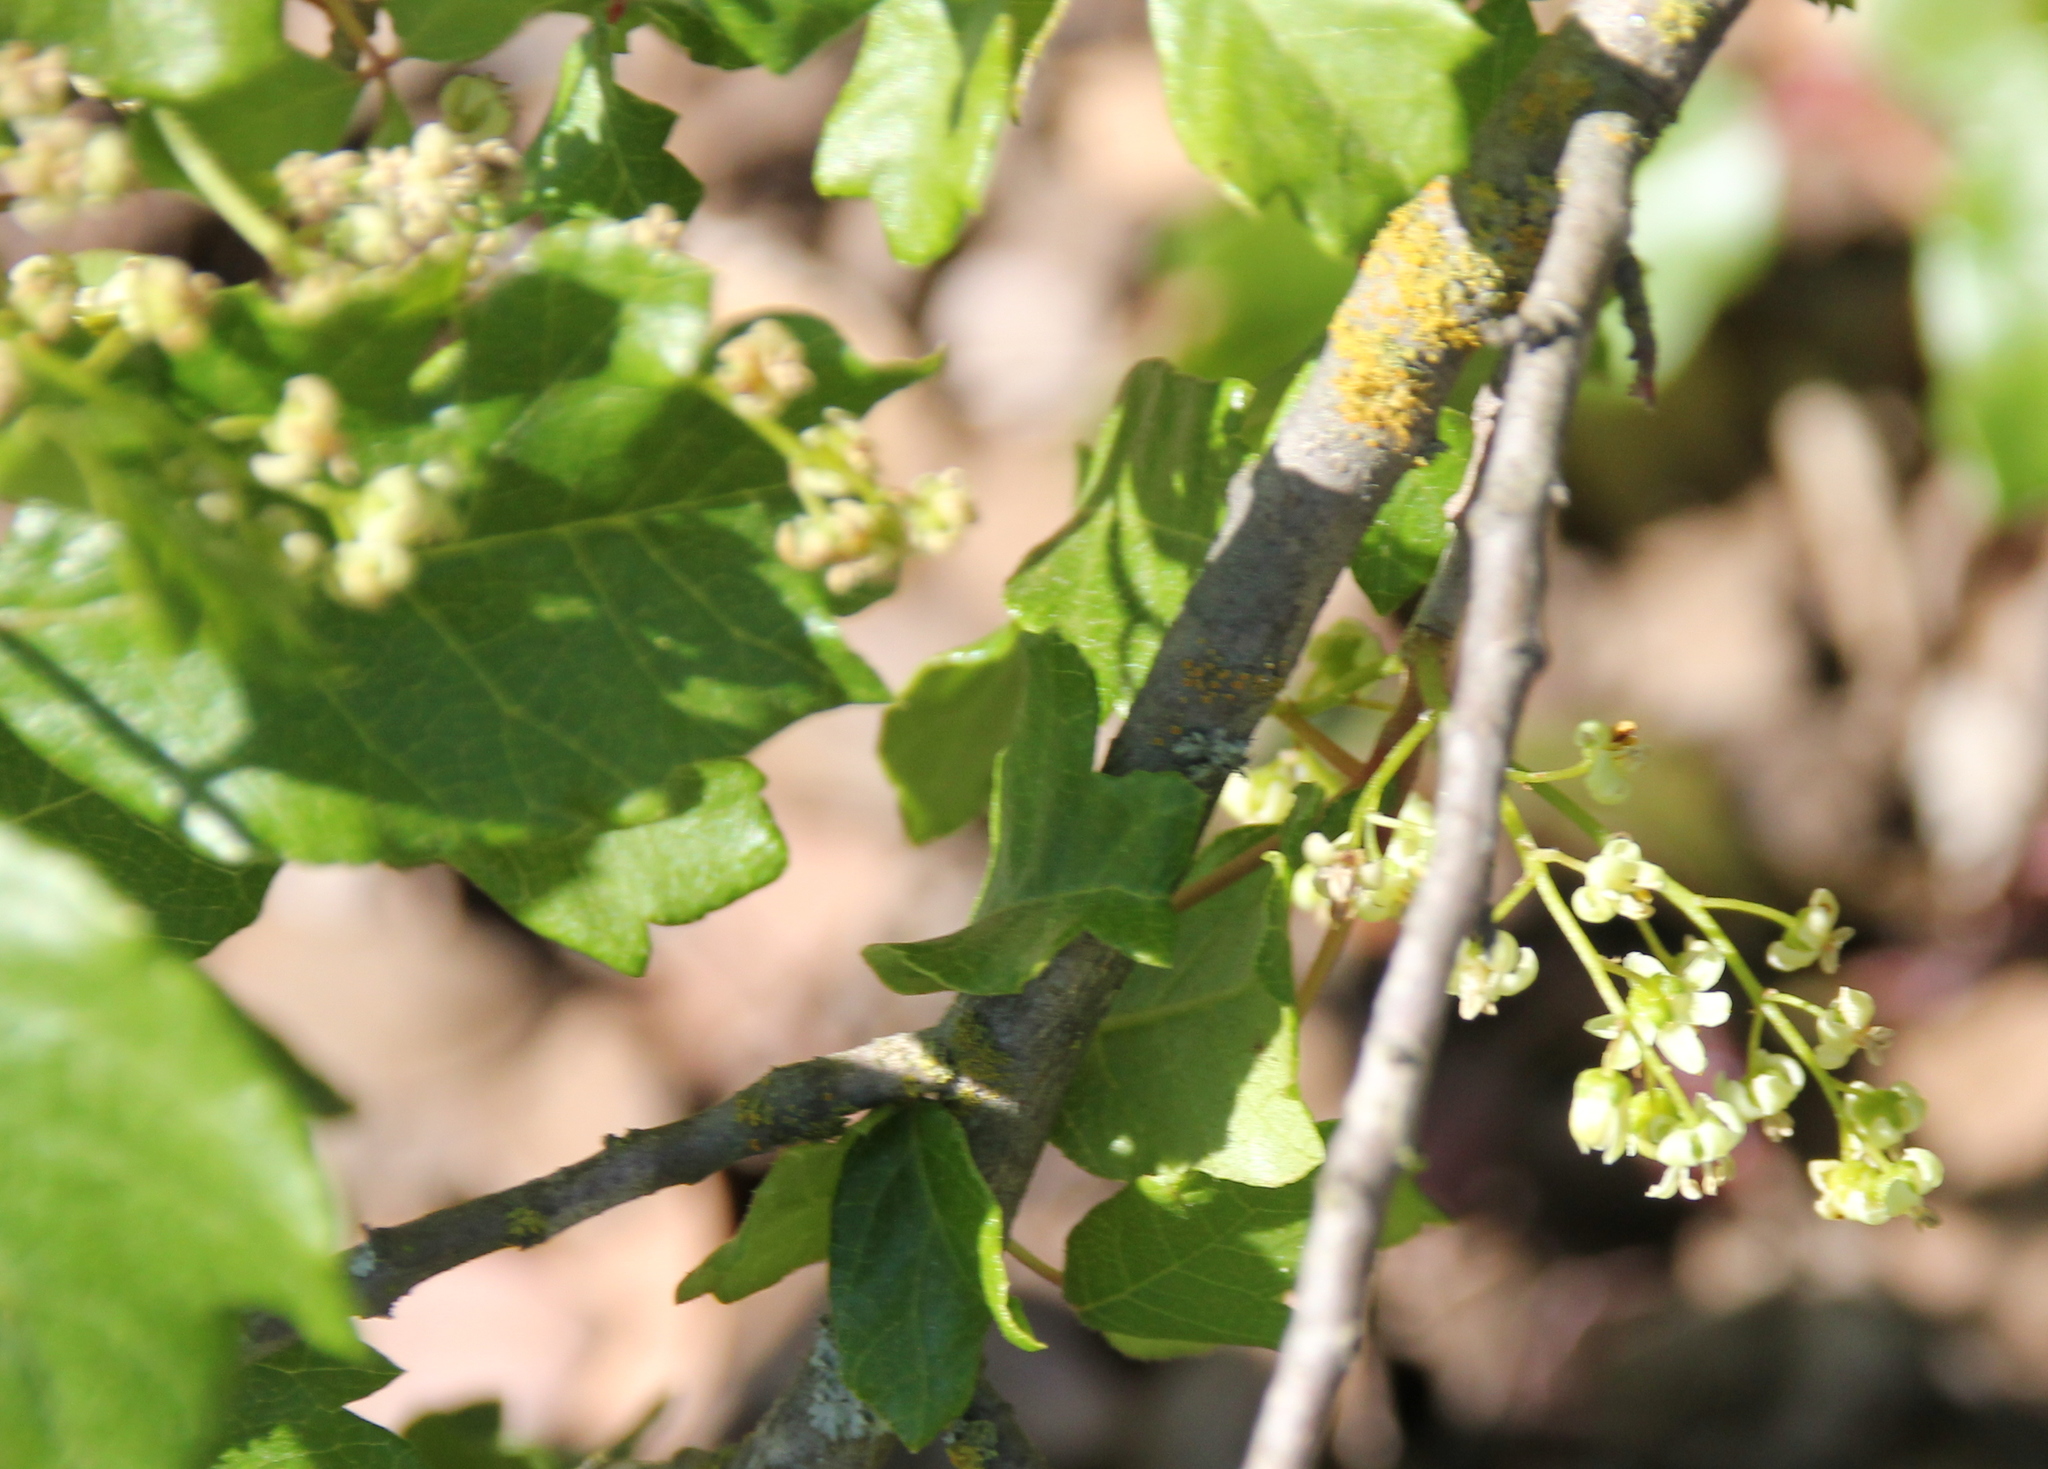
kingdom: Plantae
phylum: Tracheophyta
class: Magnoliopsida
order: Sapindales
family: Anacardiaceae
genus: Toxicodendron
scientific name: Toxicodendron diversilobum
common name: Pacific poison-oak
